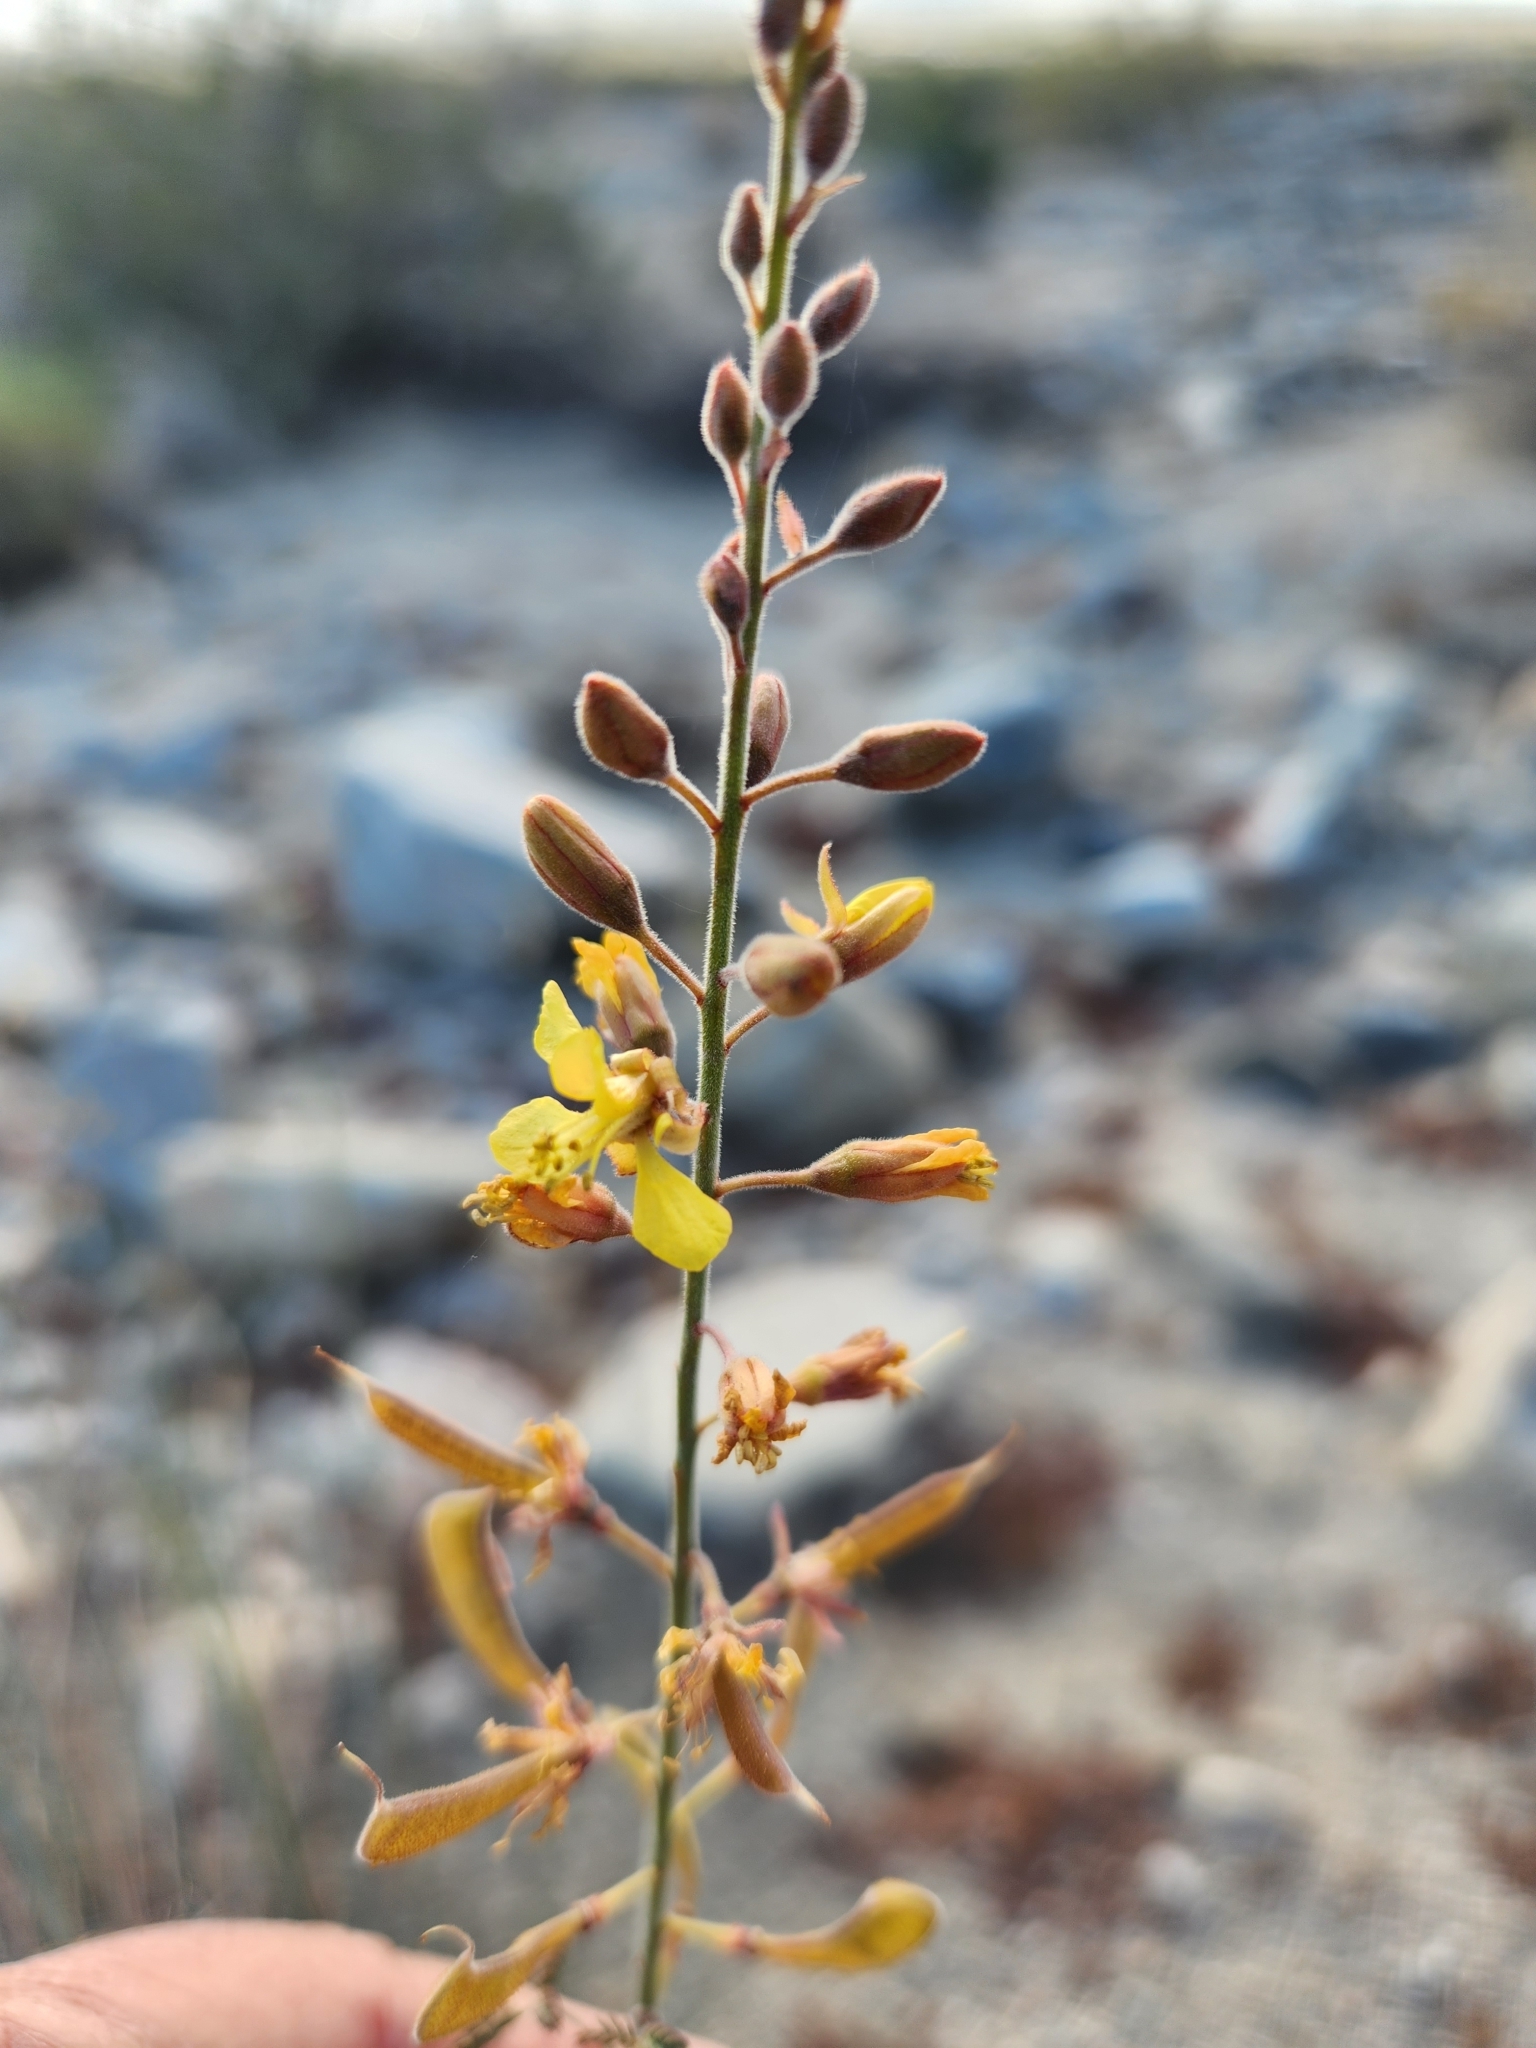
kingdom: Plantae
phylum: Tracheophyta
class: Magnoliopsida
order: Fabales
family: Fabaceae
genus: Hoffmannseggia
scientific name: Hoffmannseggia microphylla
